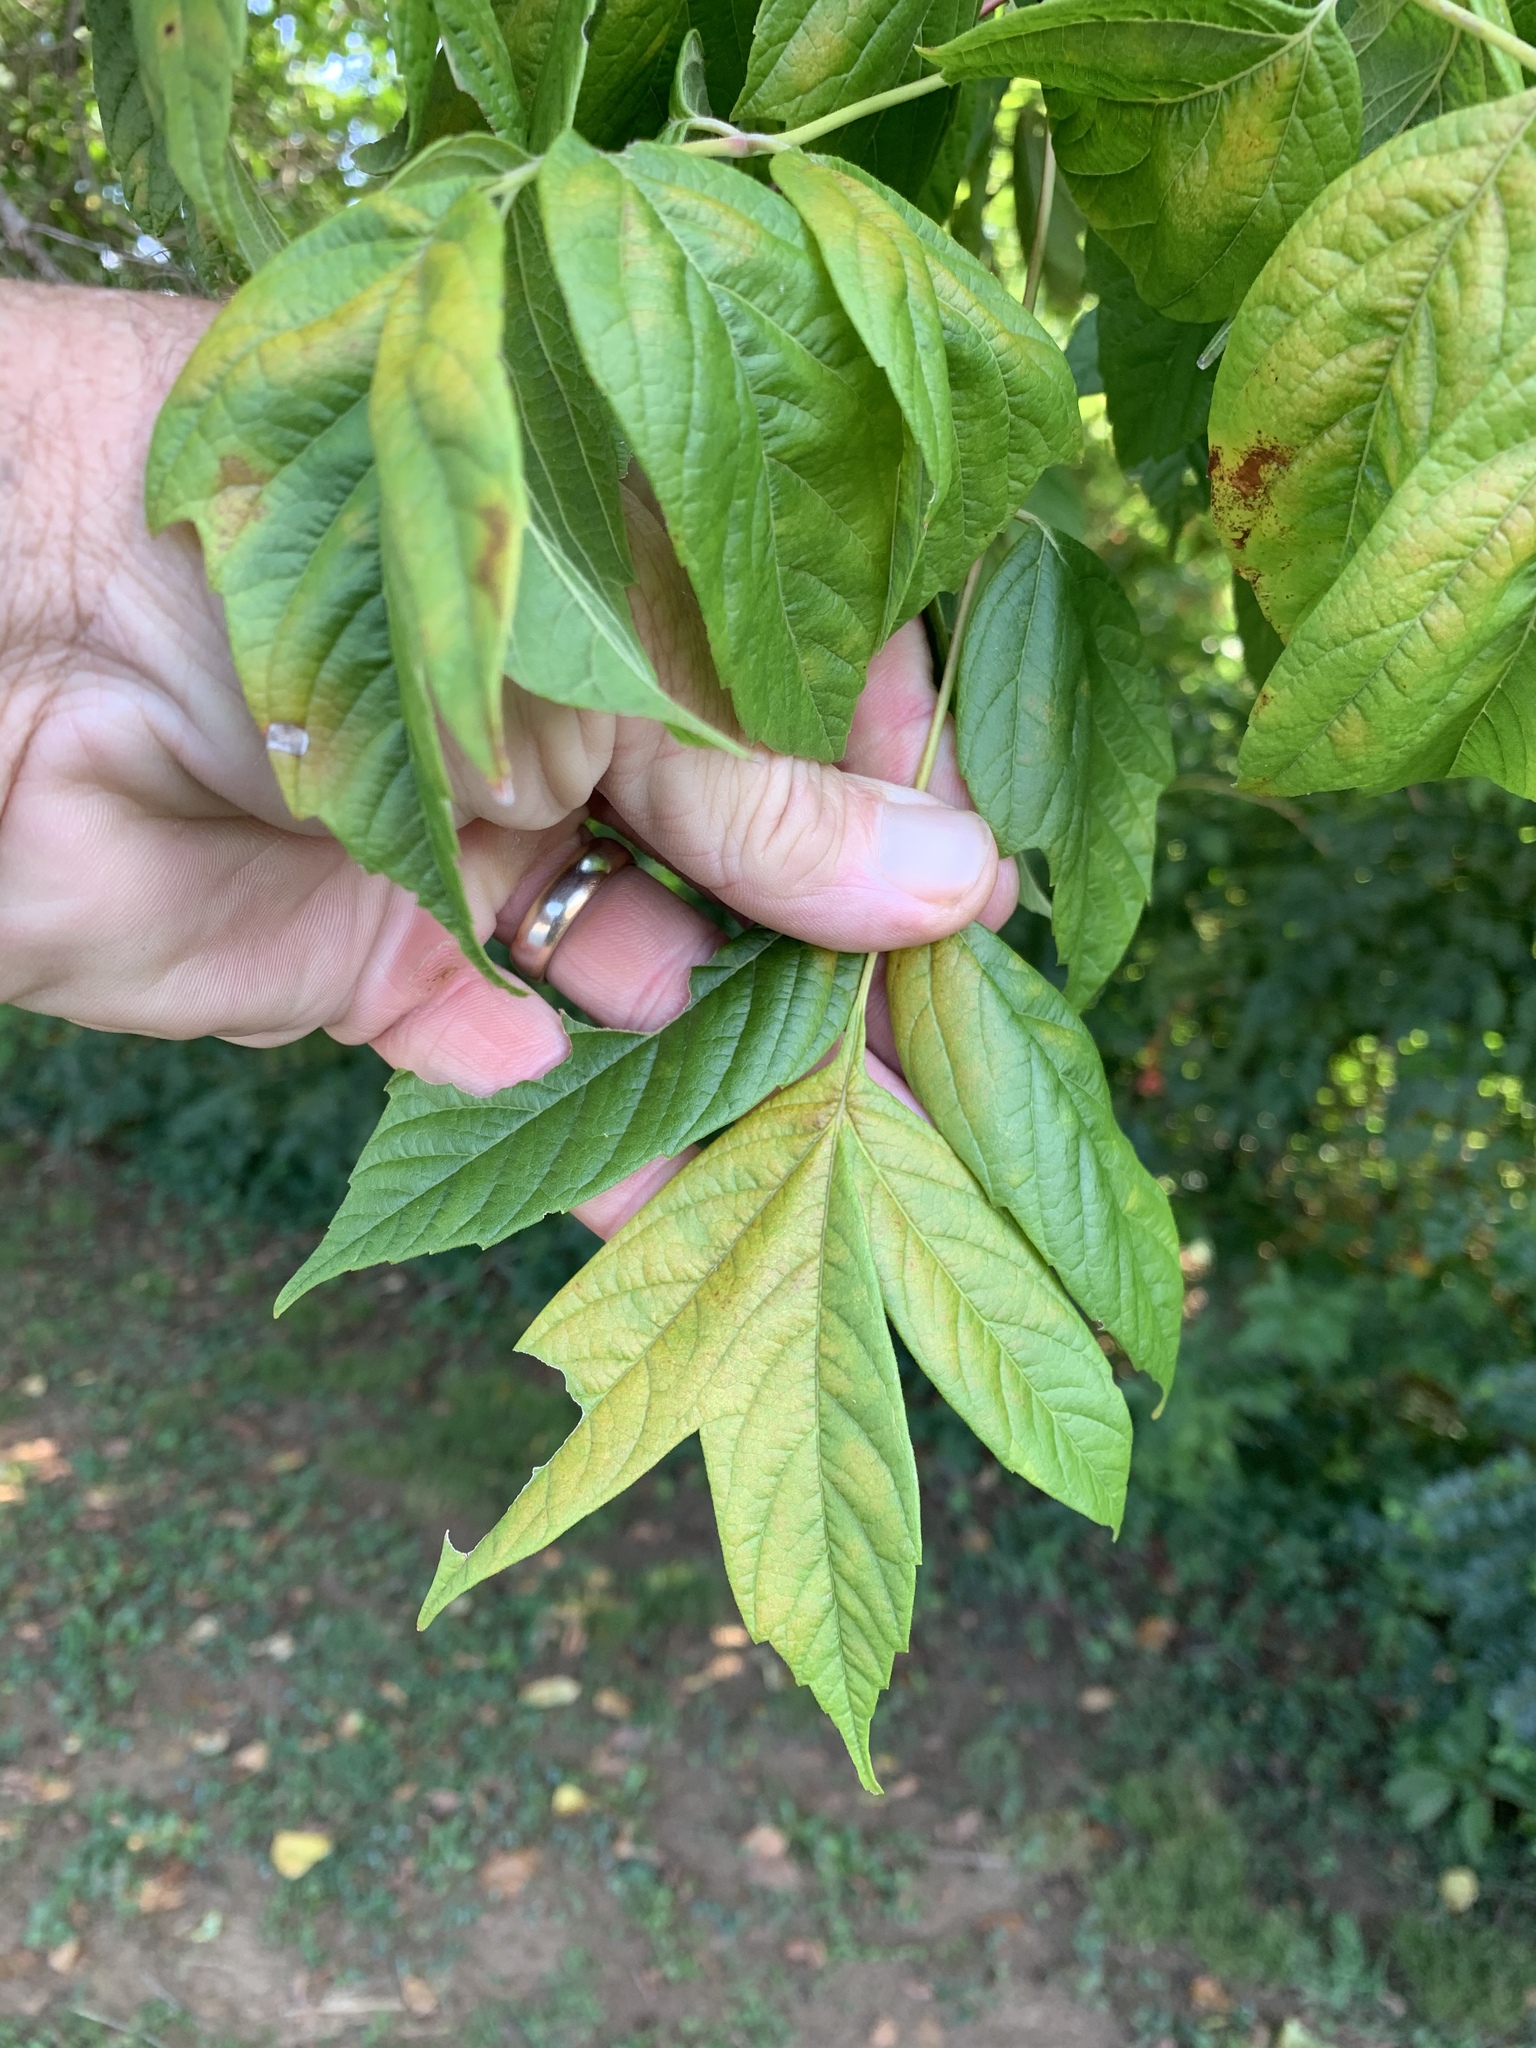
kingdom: Plantae
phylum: Tracheophyta
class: Magnoliopsida
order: Sapindales
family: Sapindaceae
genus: Acer
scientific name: Acer negundo
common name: Ashleaf maple
